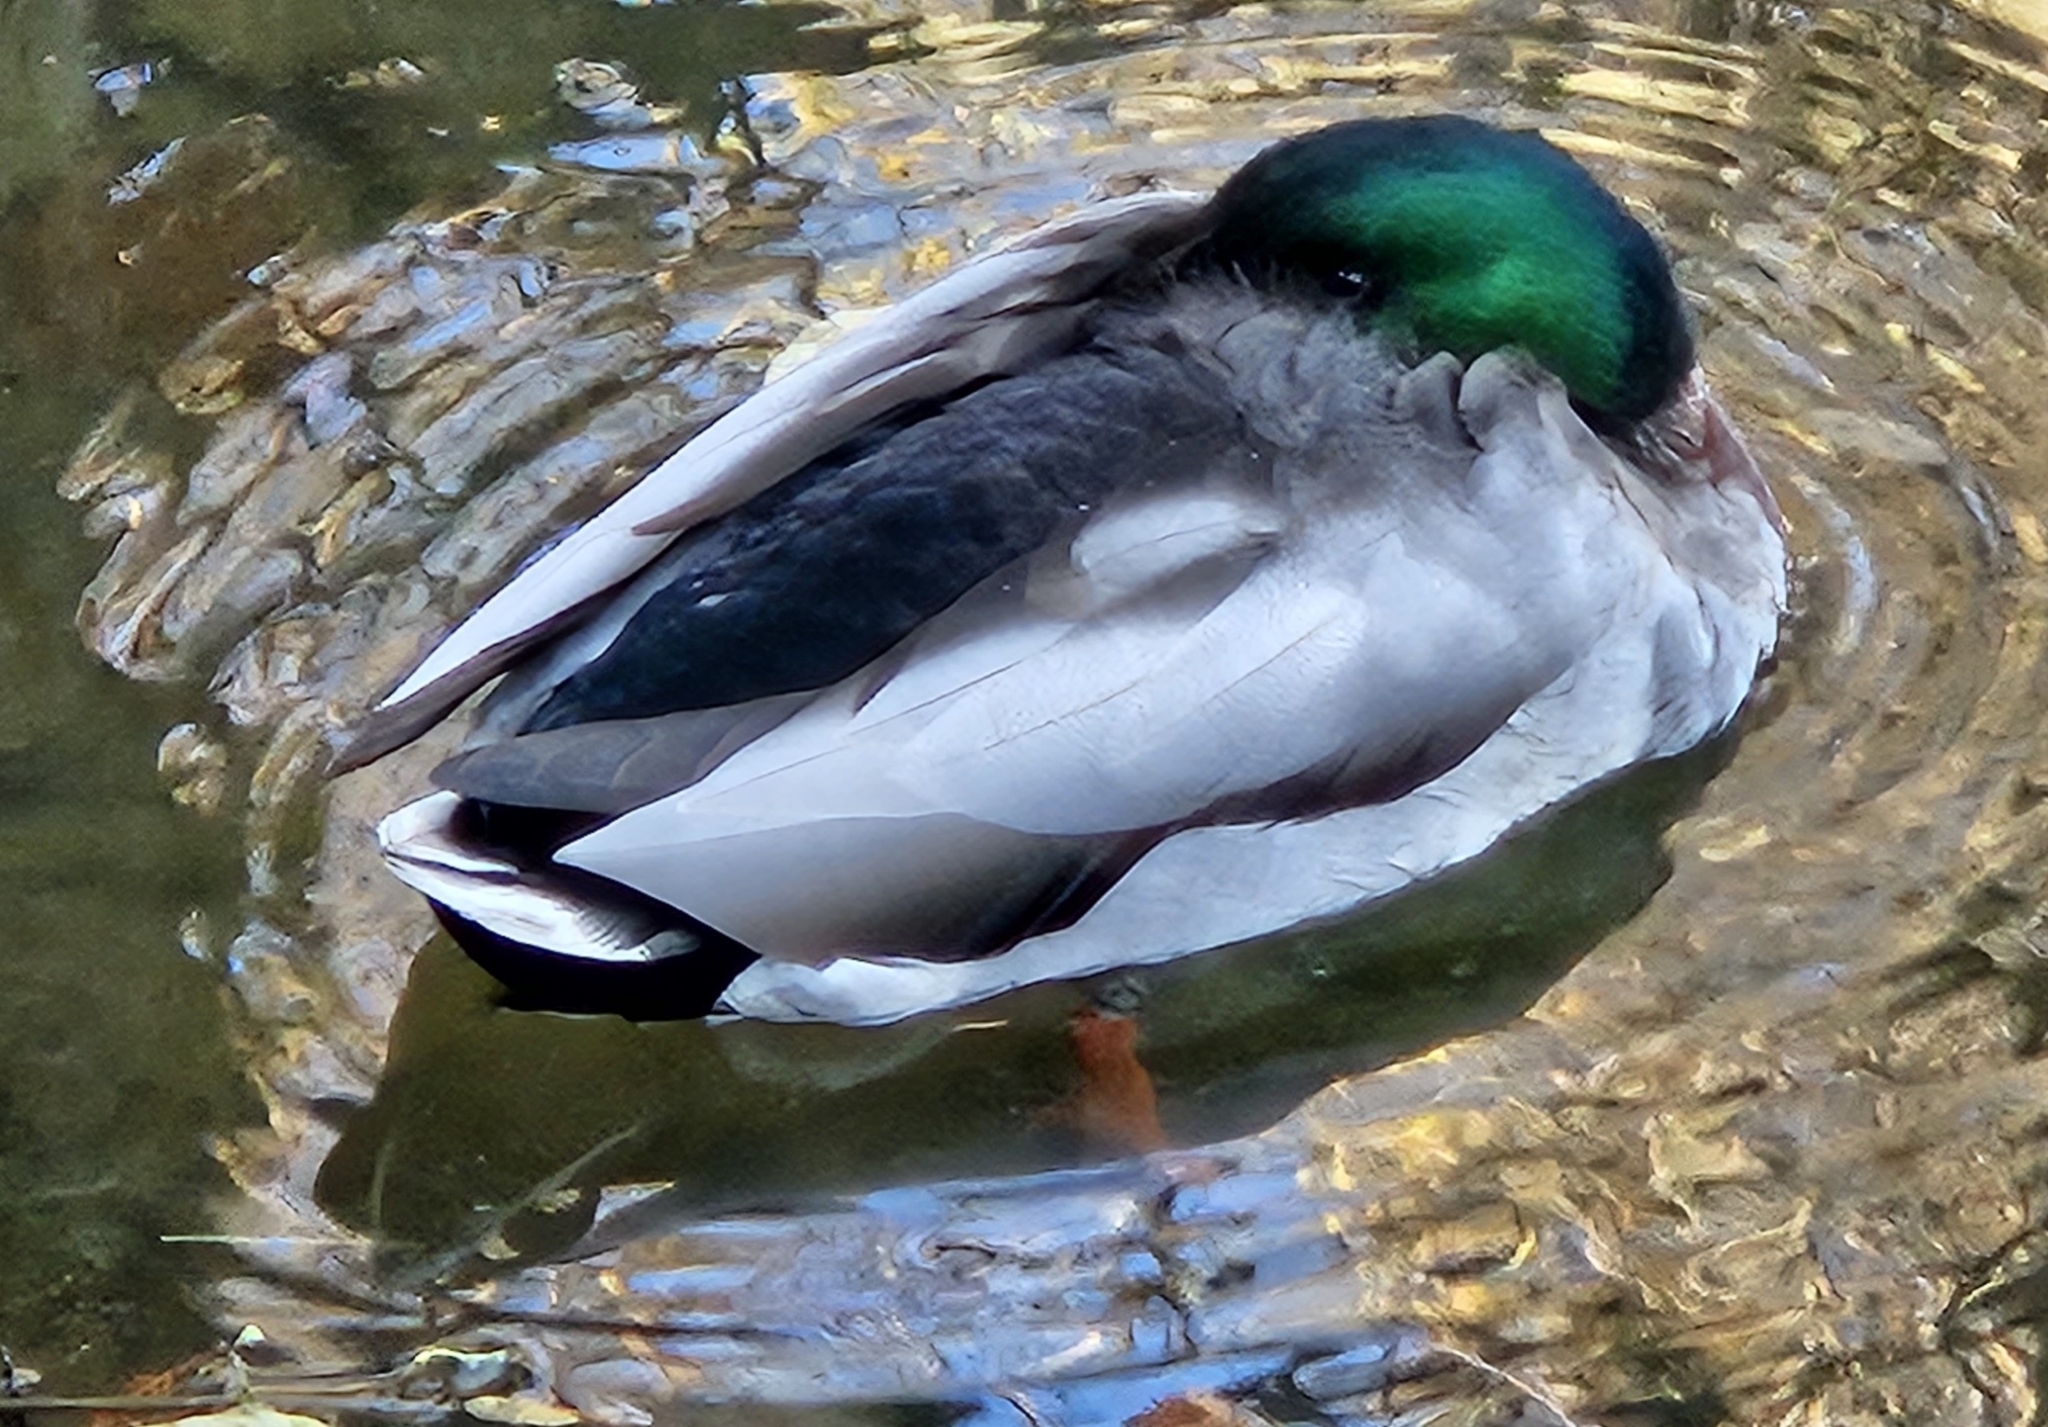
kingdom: Animalia
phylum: Chordata
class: Aves
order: Anseriformes
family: Anatidae
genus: Anas
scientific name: Anas platyrhynchos
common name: Mallard
